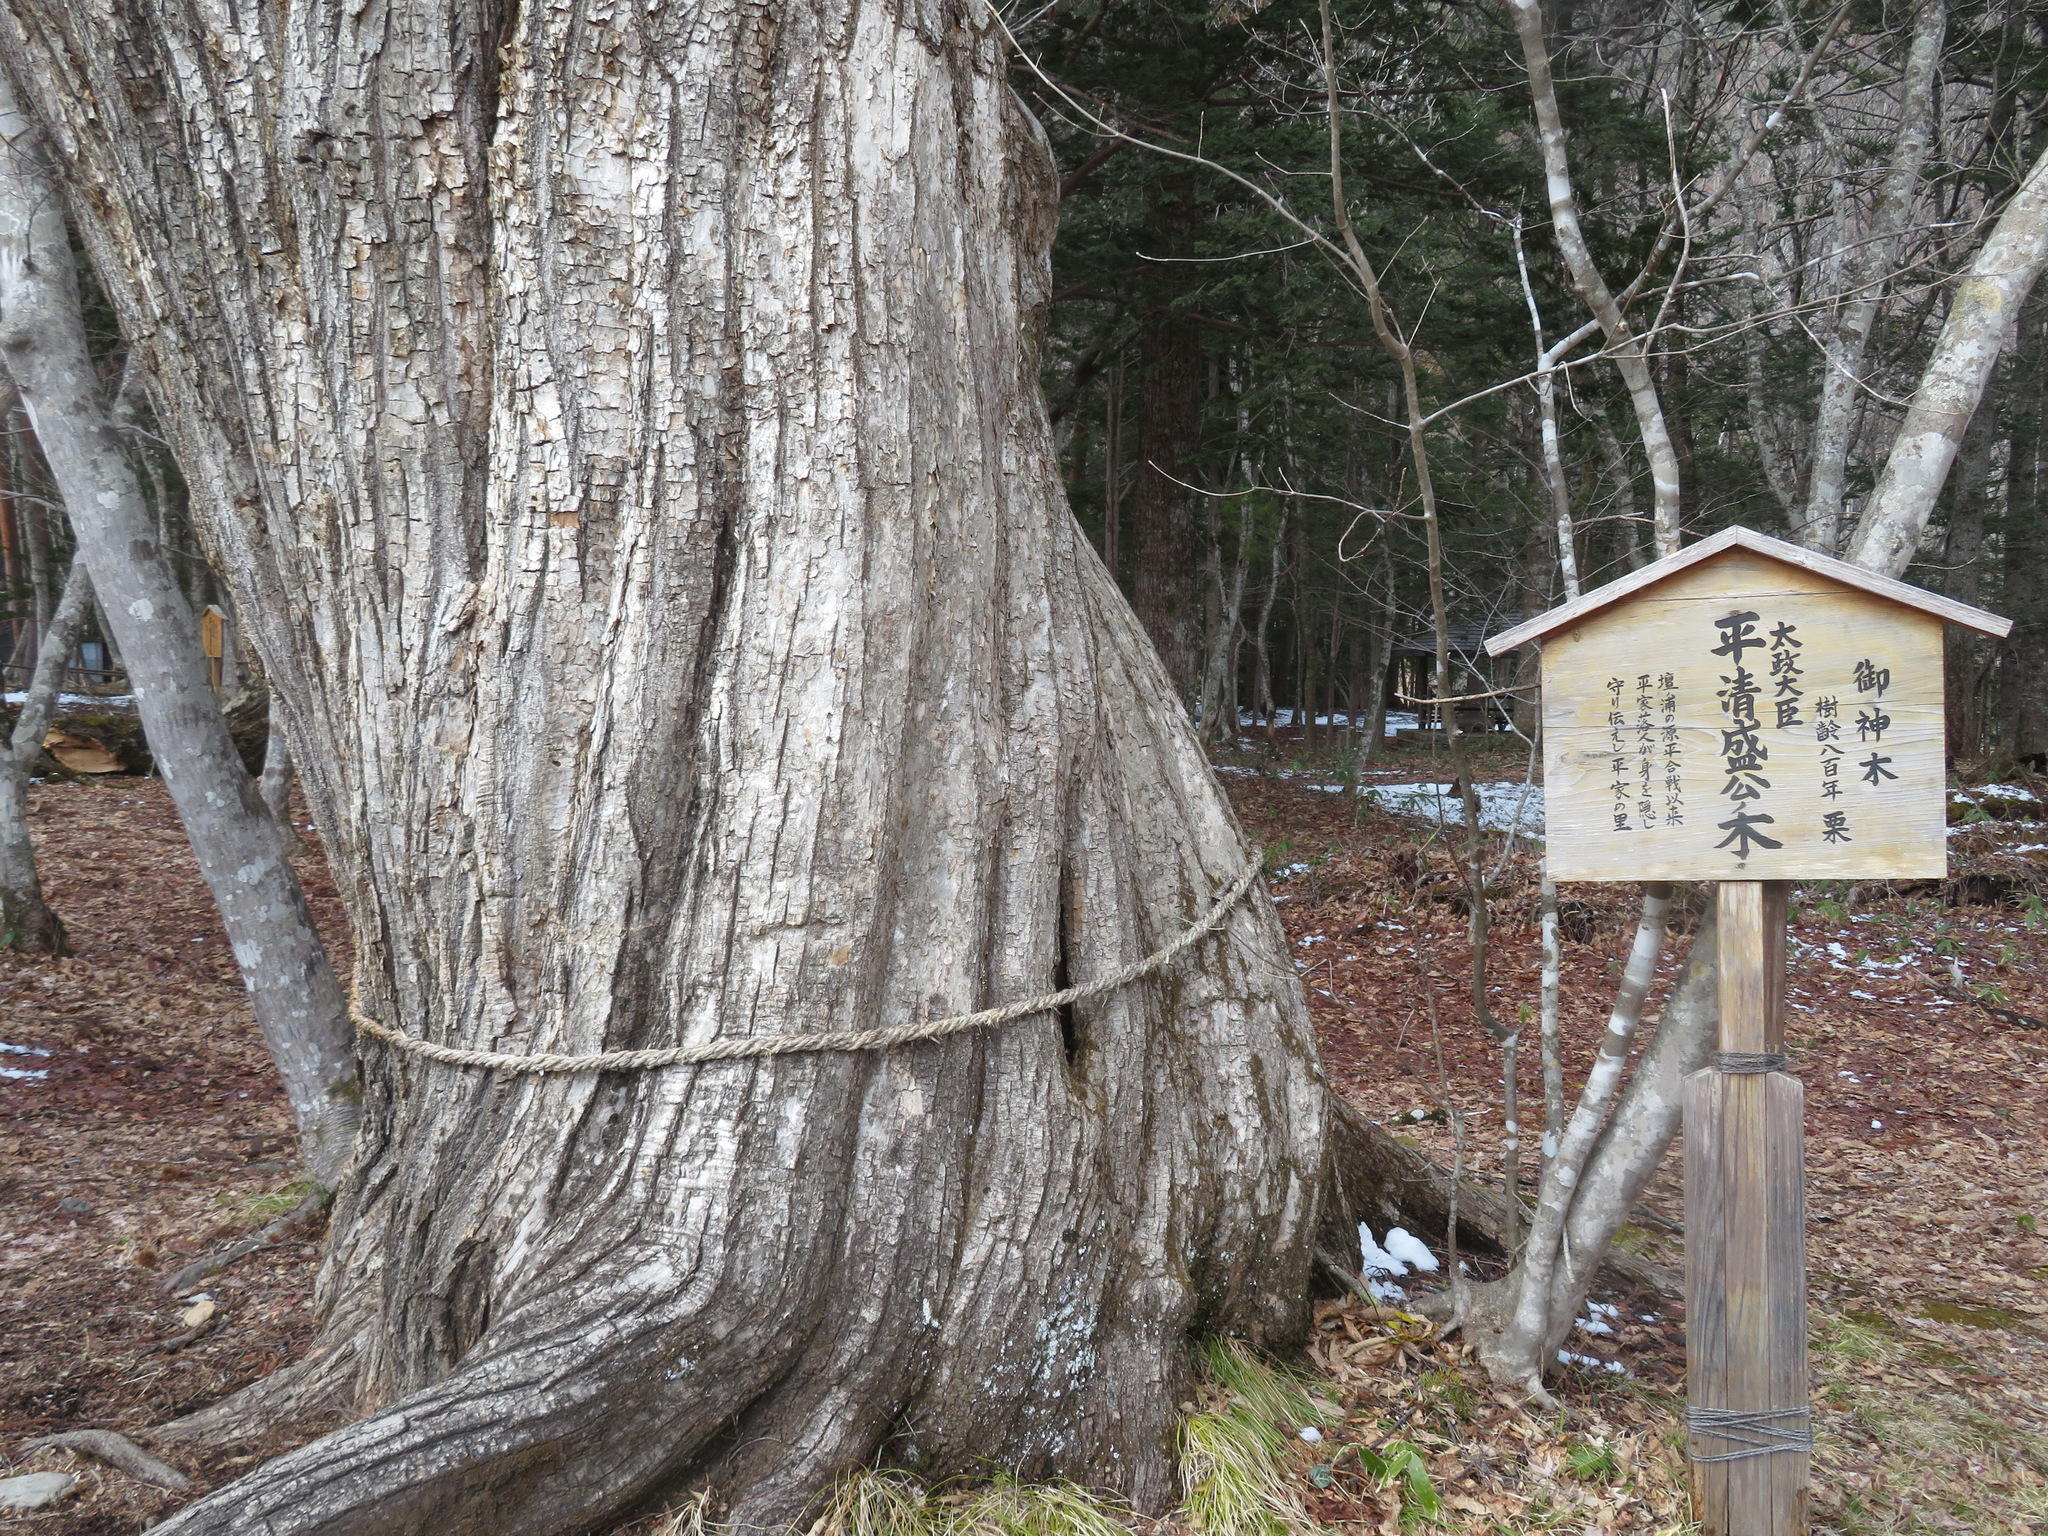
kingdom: Plantae
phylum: Tracheophyta
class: Magnoliopsida
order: Fagales
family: Fagaceae
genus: Castanea
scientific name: Castanea crenata
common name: Japanese chestnut
